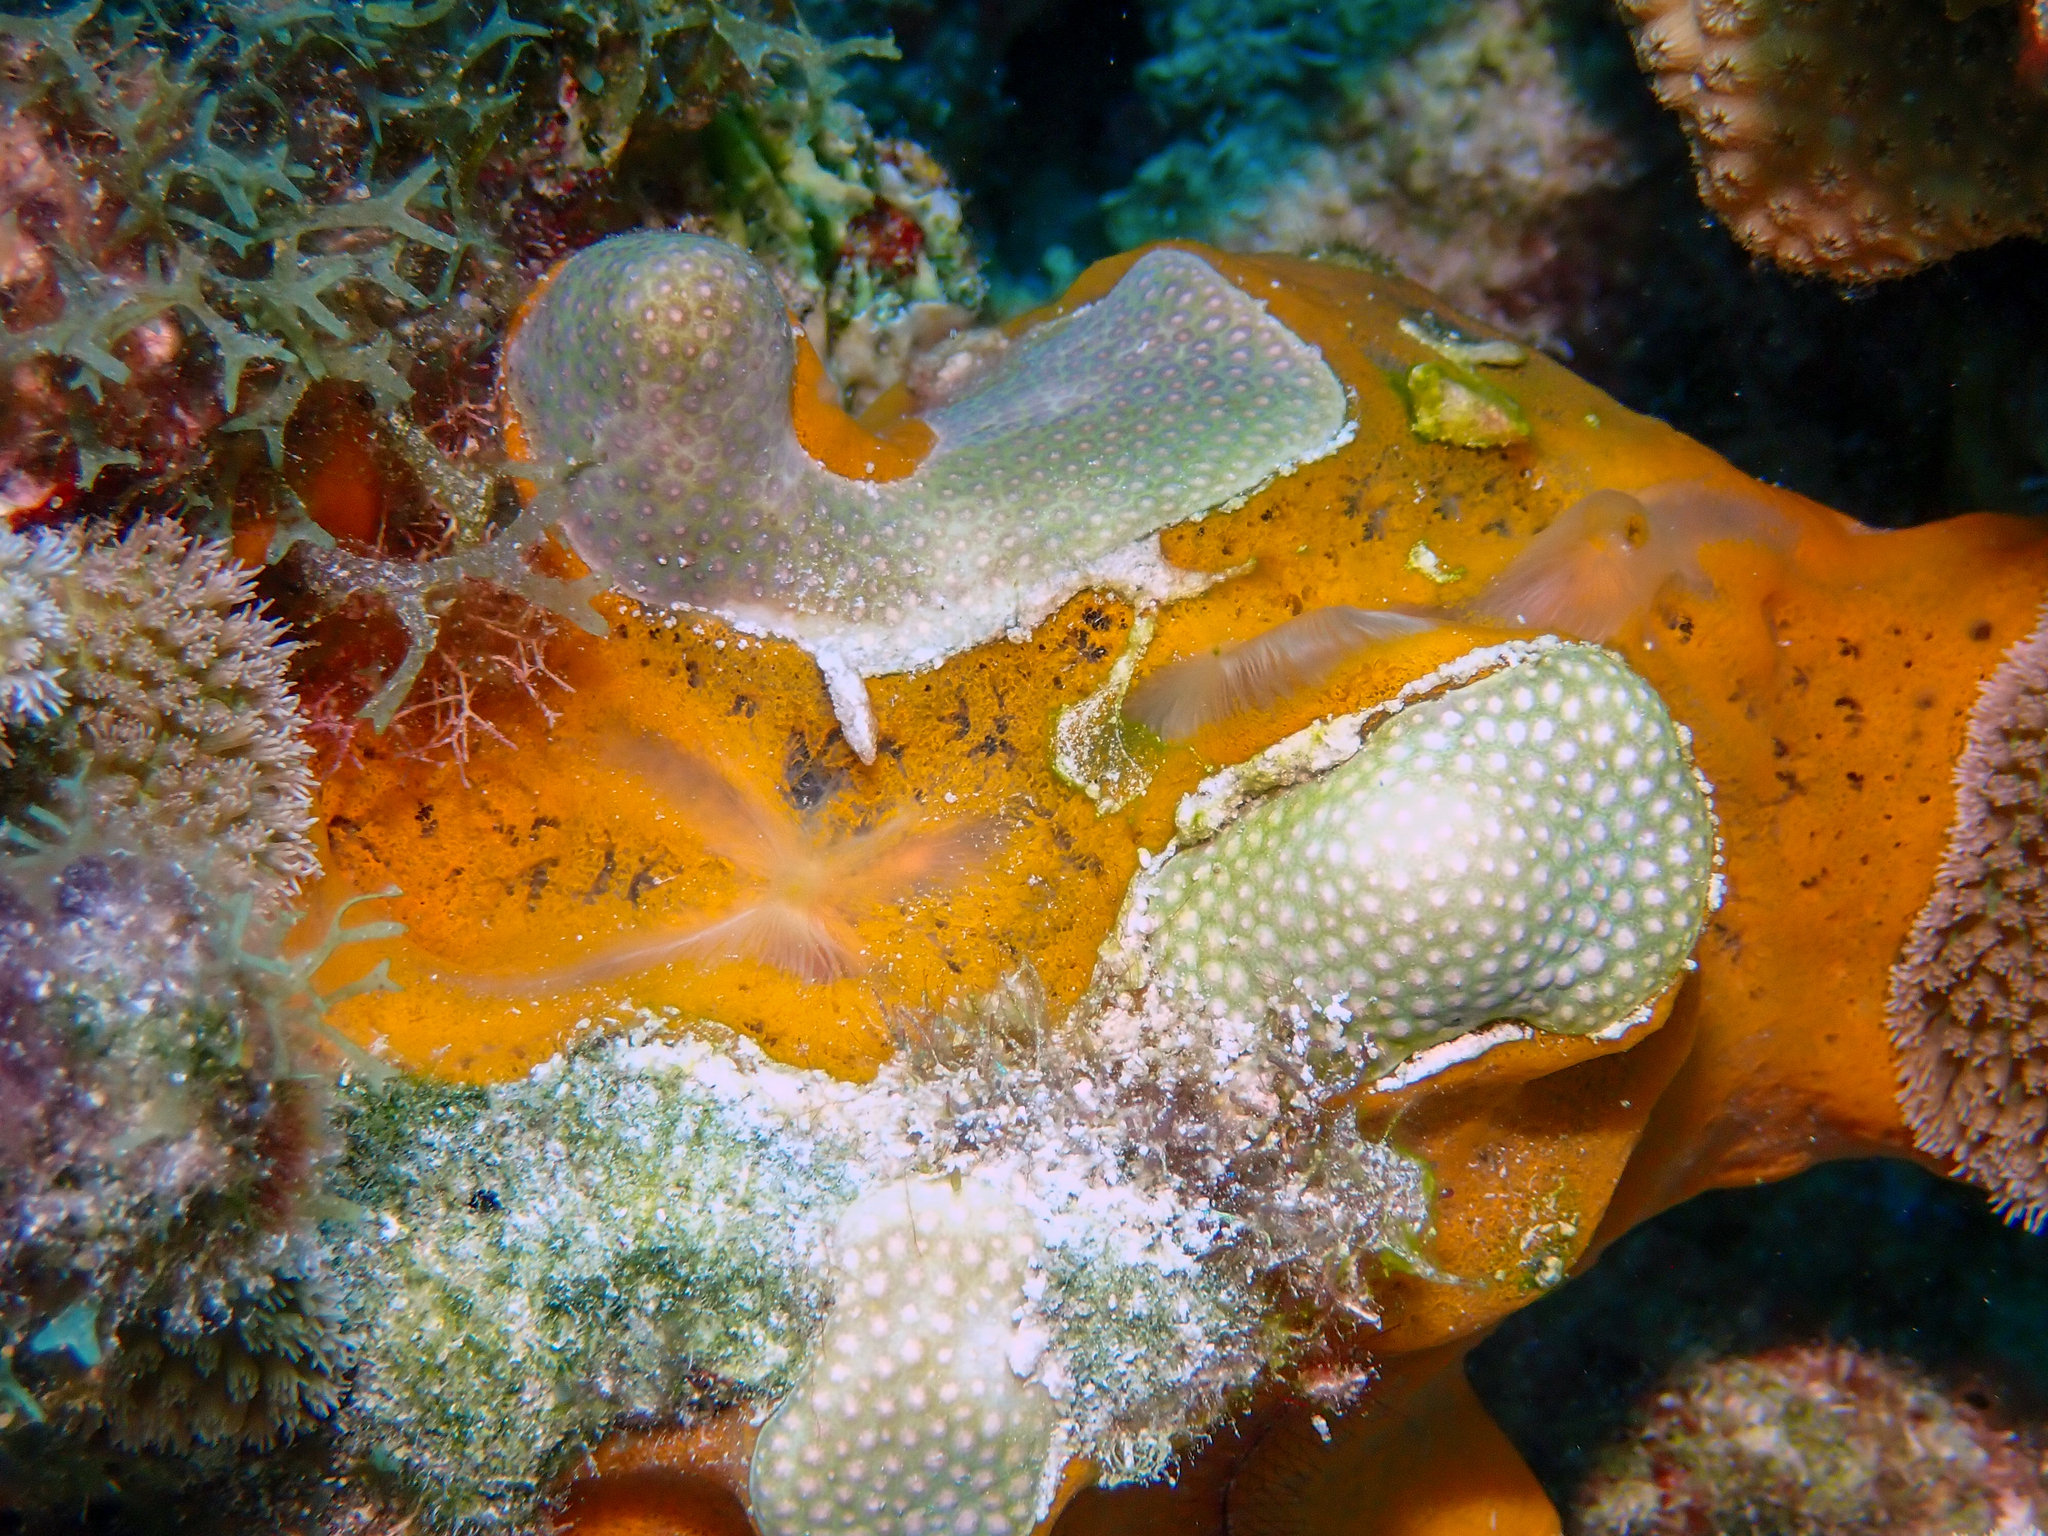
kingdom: Animalia
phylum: Porifera
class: Demospongiae
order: Poecilosclerida
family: Mycalidae
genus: Mycale
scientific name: Mycale laevis
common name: Orange icing sponge
